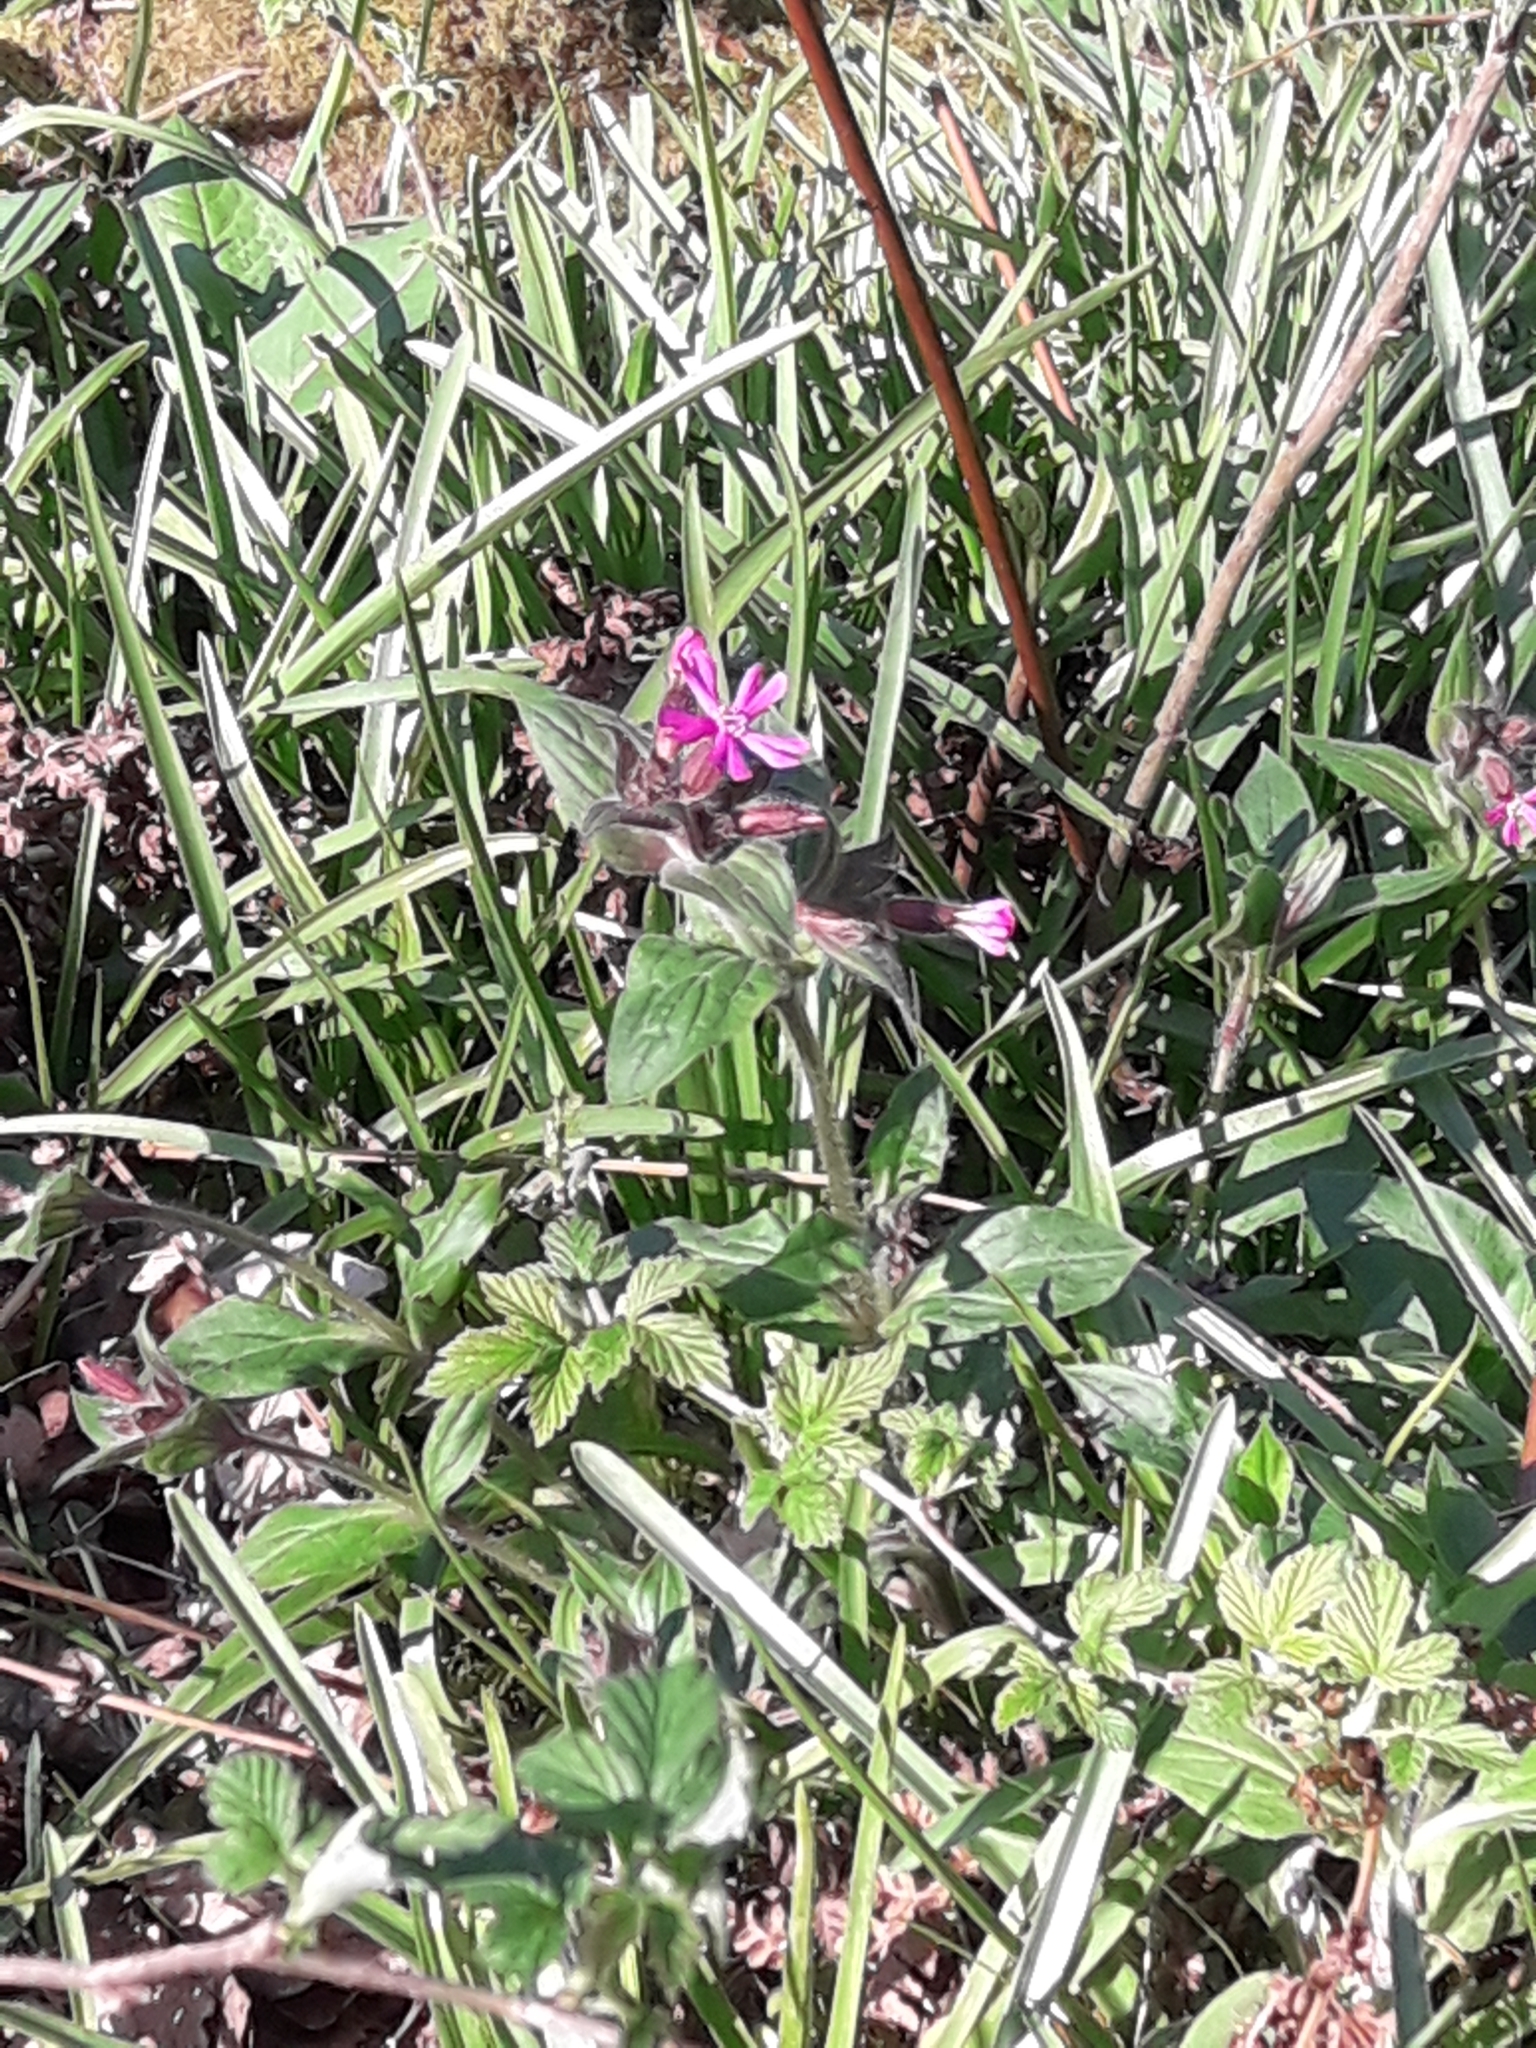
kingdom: Plantae
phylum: Tracheophyta
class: Magnoliopsida
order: Caryophyllales
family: Caryophyllaceae
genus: Silene
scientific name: Silene dioica
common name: Red campion
